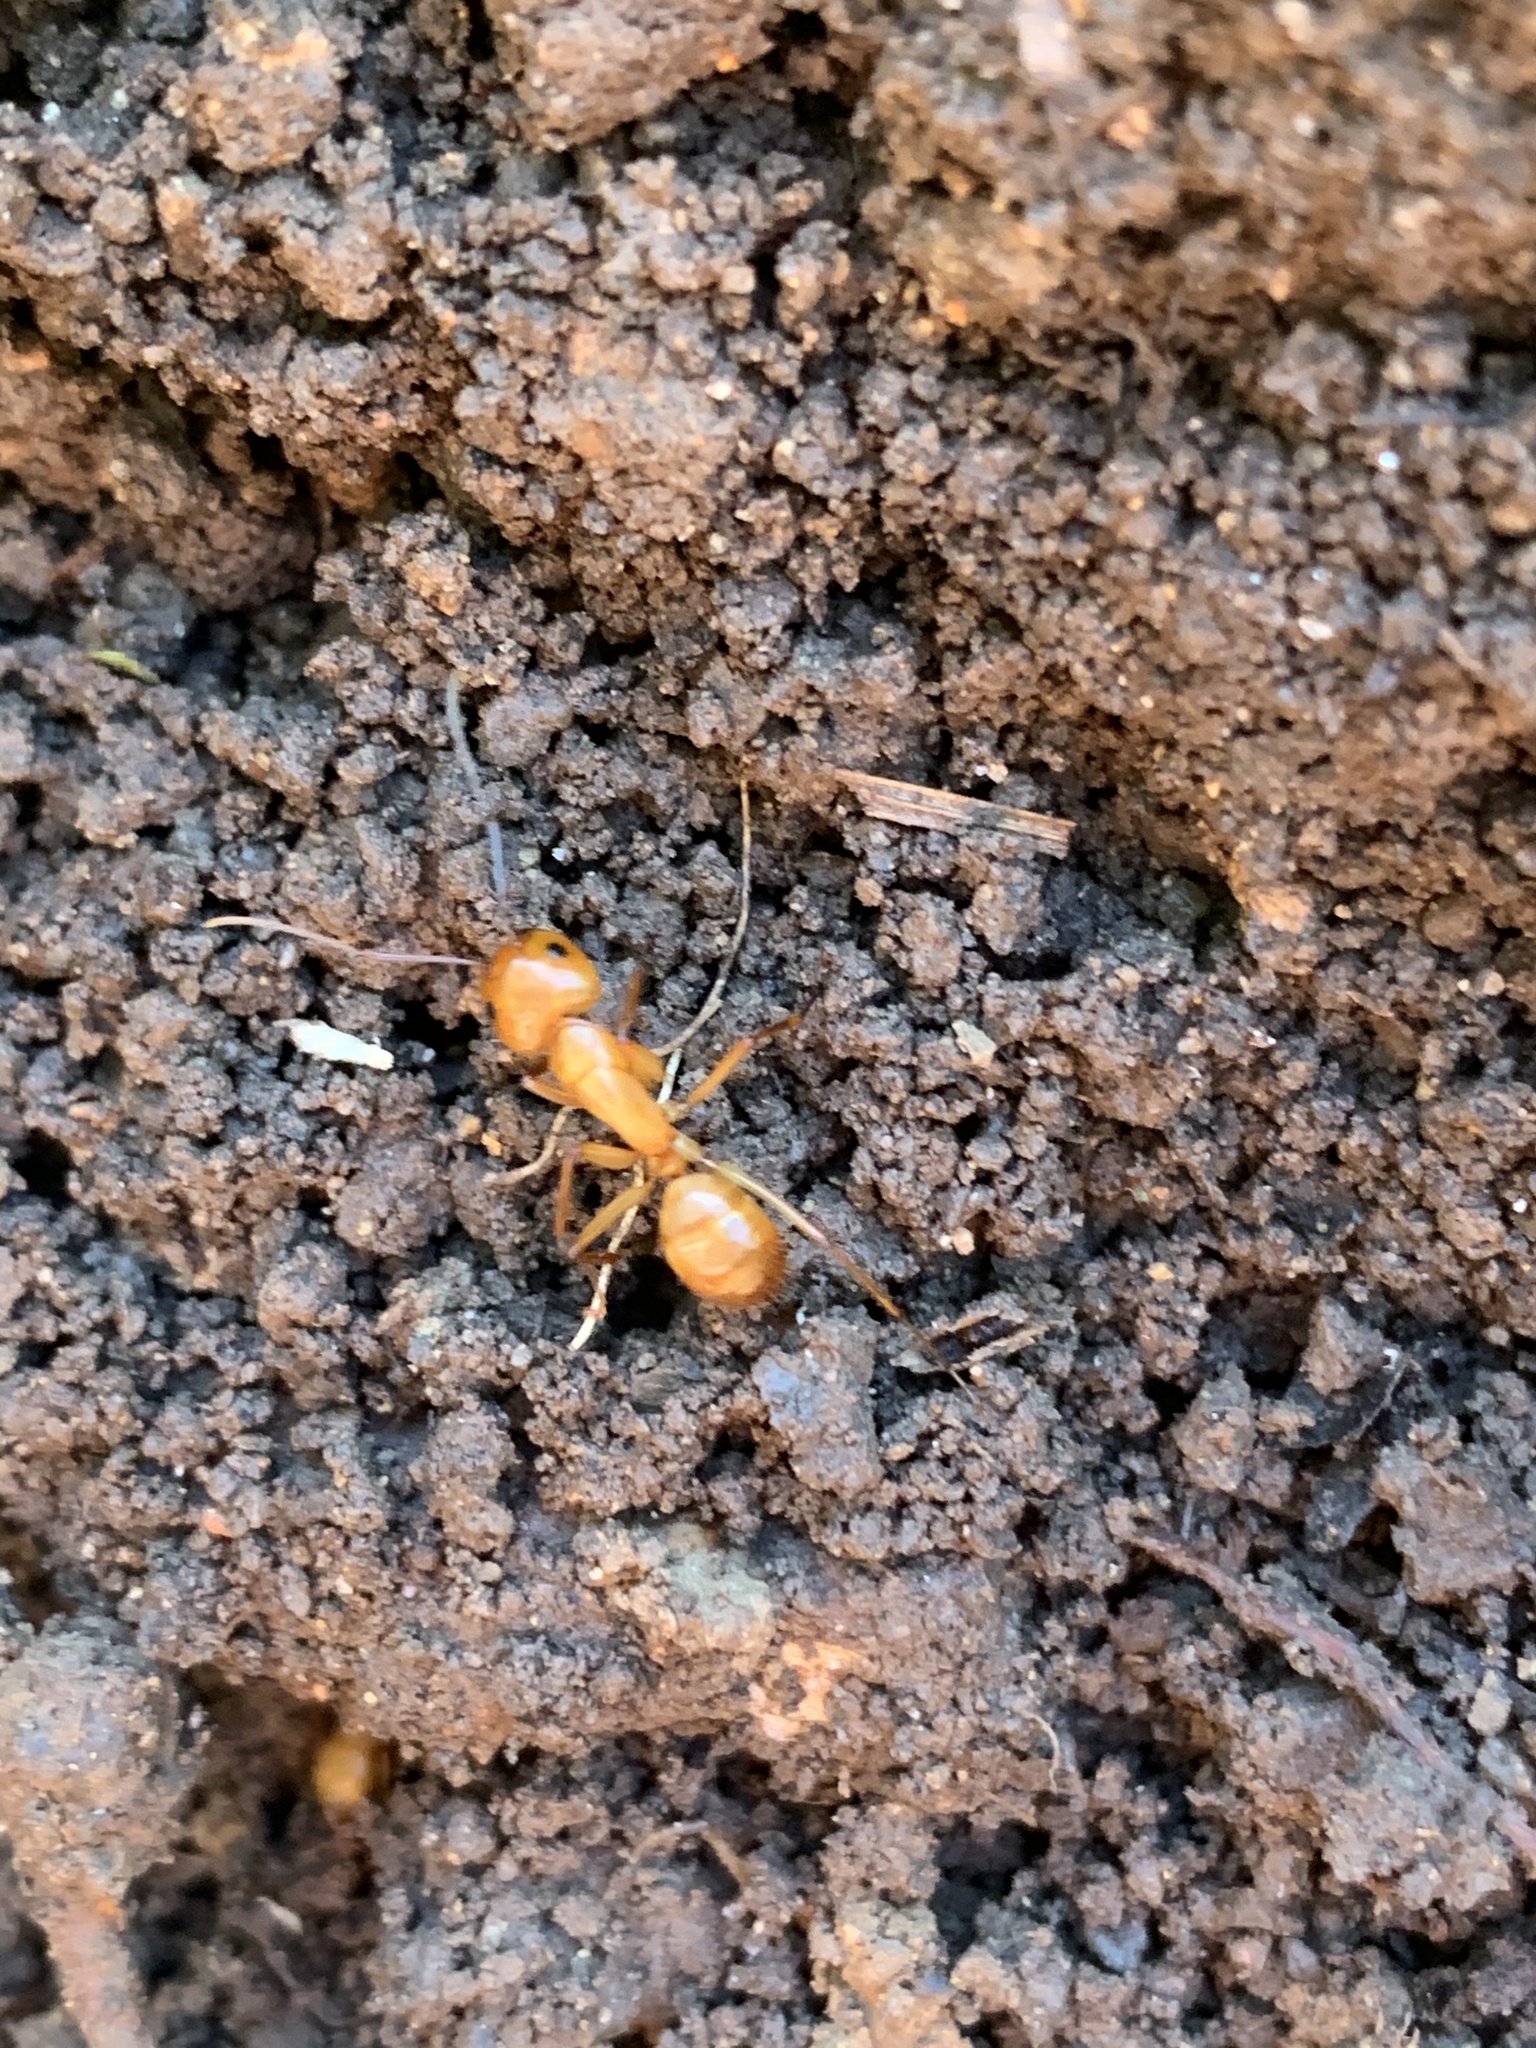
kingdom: Animalia
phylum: Arthropoda
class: Insecta
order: Hymenoptera
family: Formicidae
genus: Camponotus
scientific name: Camponotus castaneus
